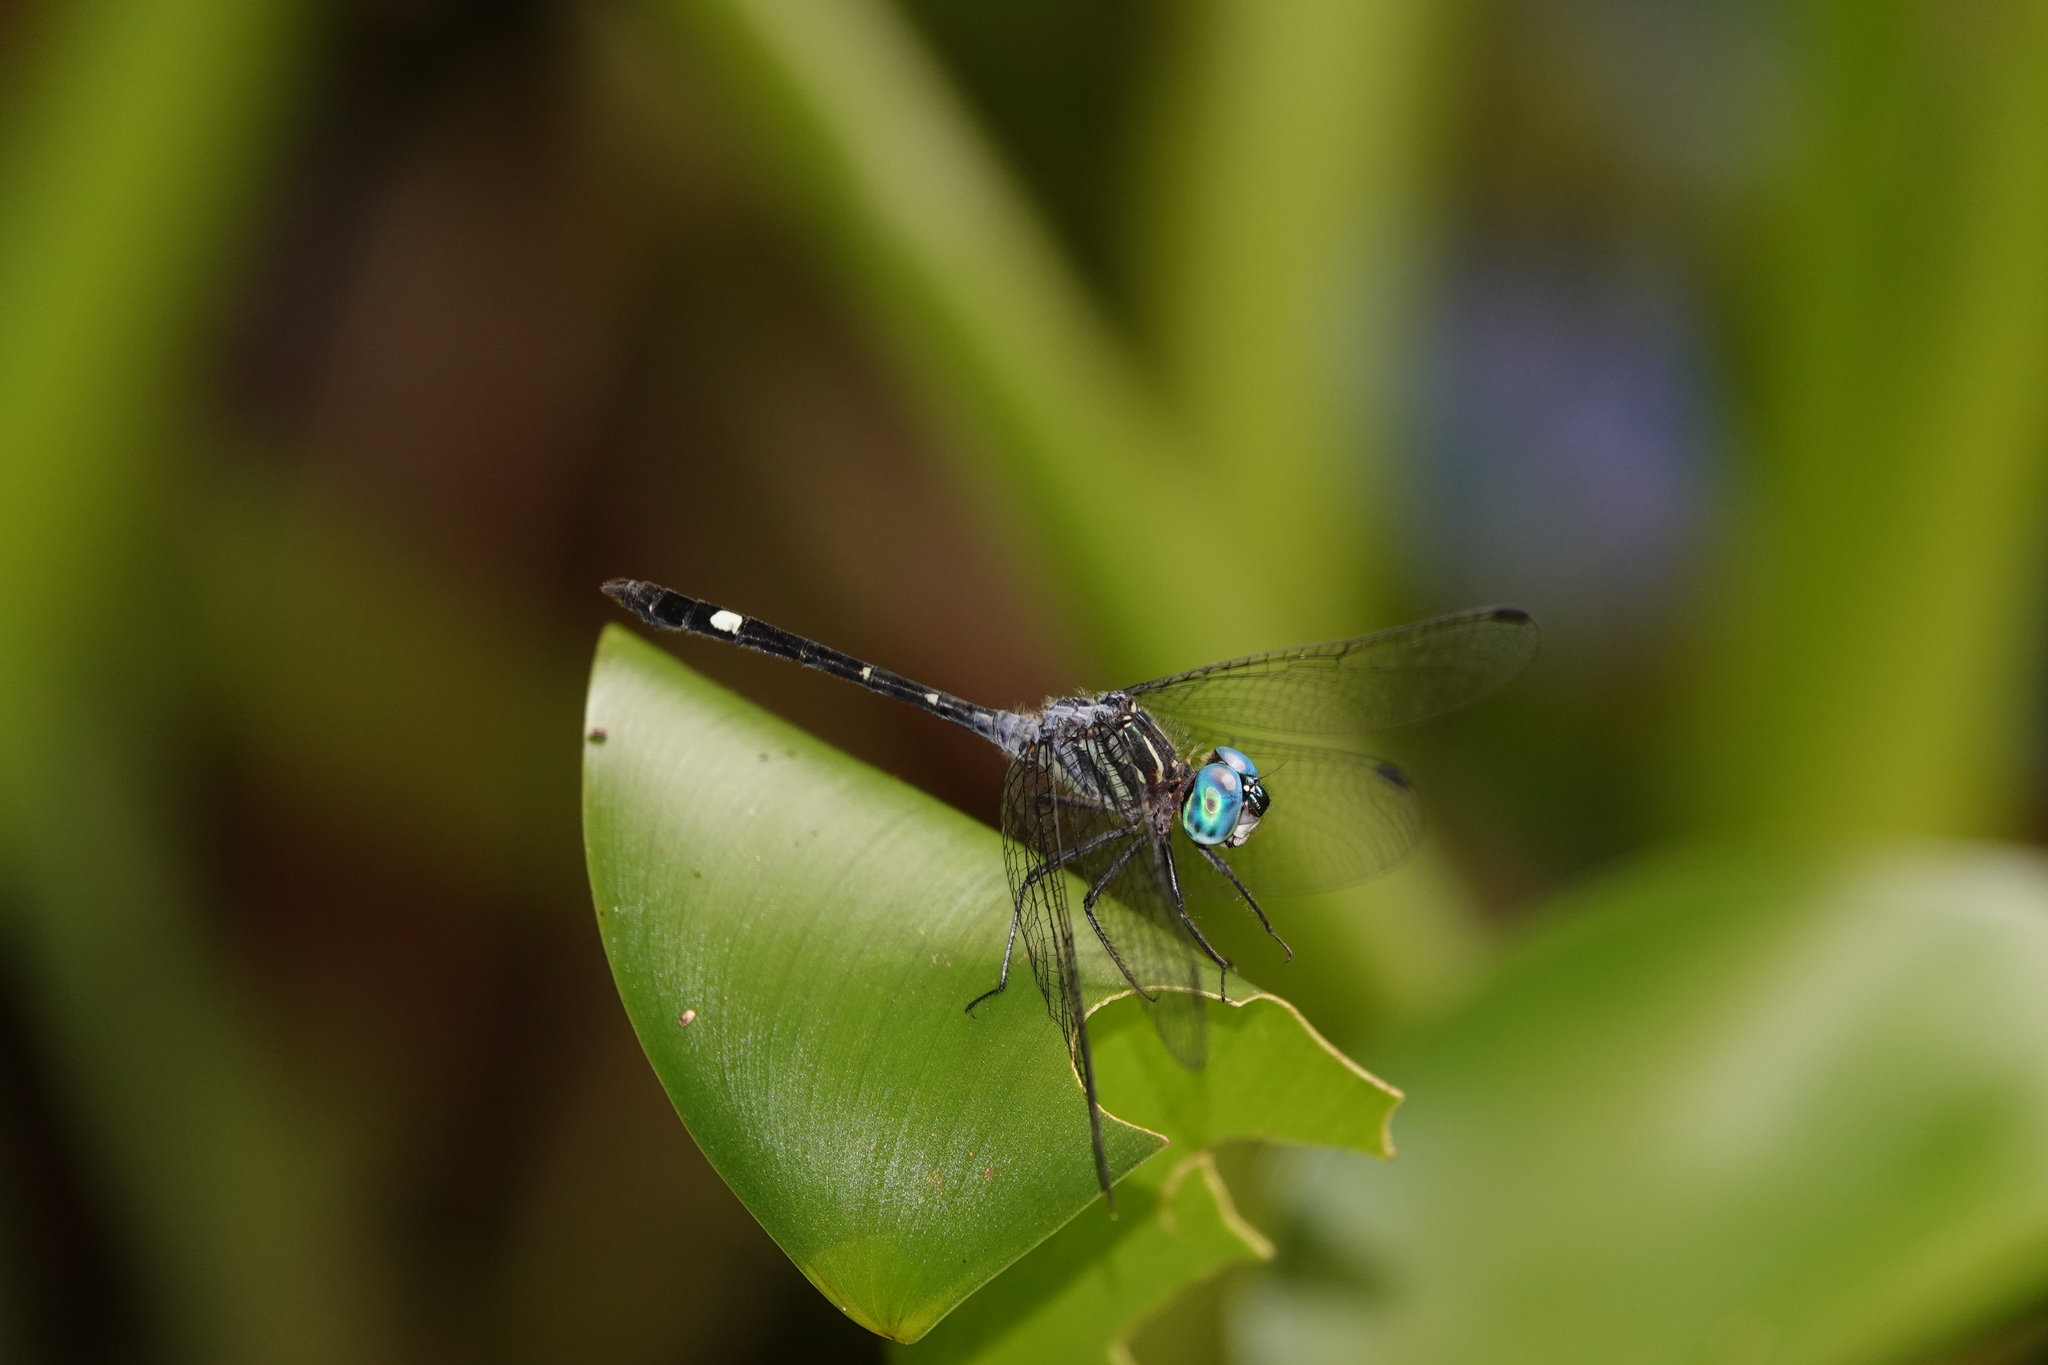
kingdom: Animalia
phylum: Arthropoda
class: Insecta
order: Odonata
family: Libellulidae
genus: Micrathyria
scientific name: Micrathyria didyma
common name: Three-striped dasher
